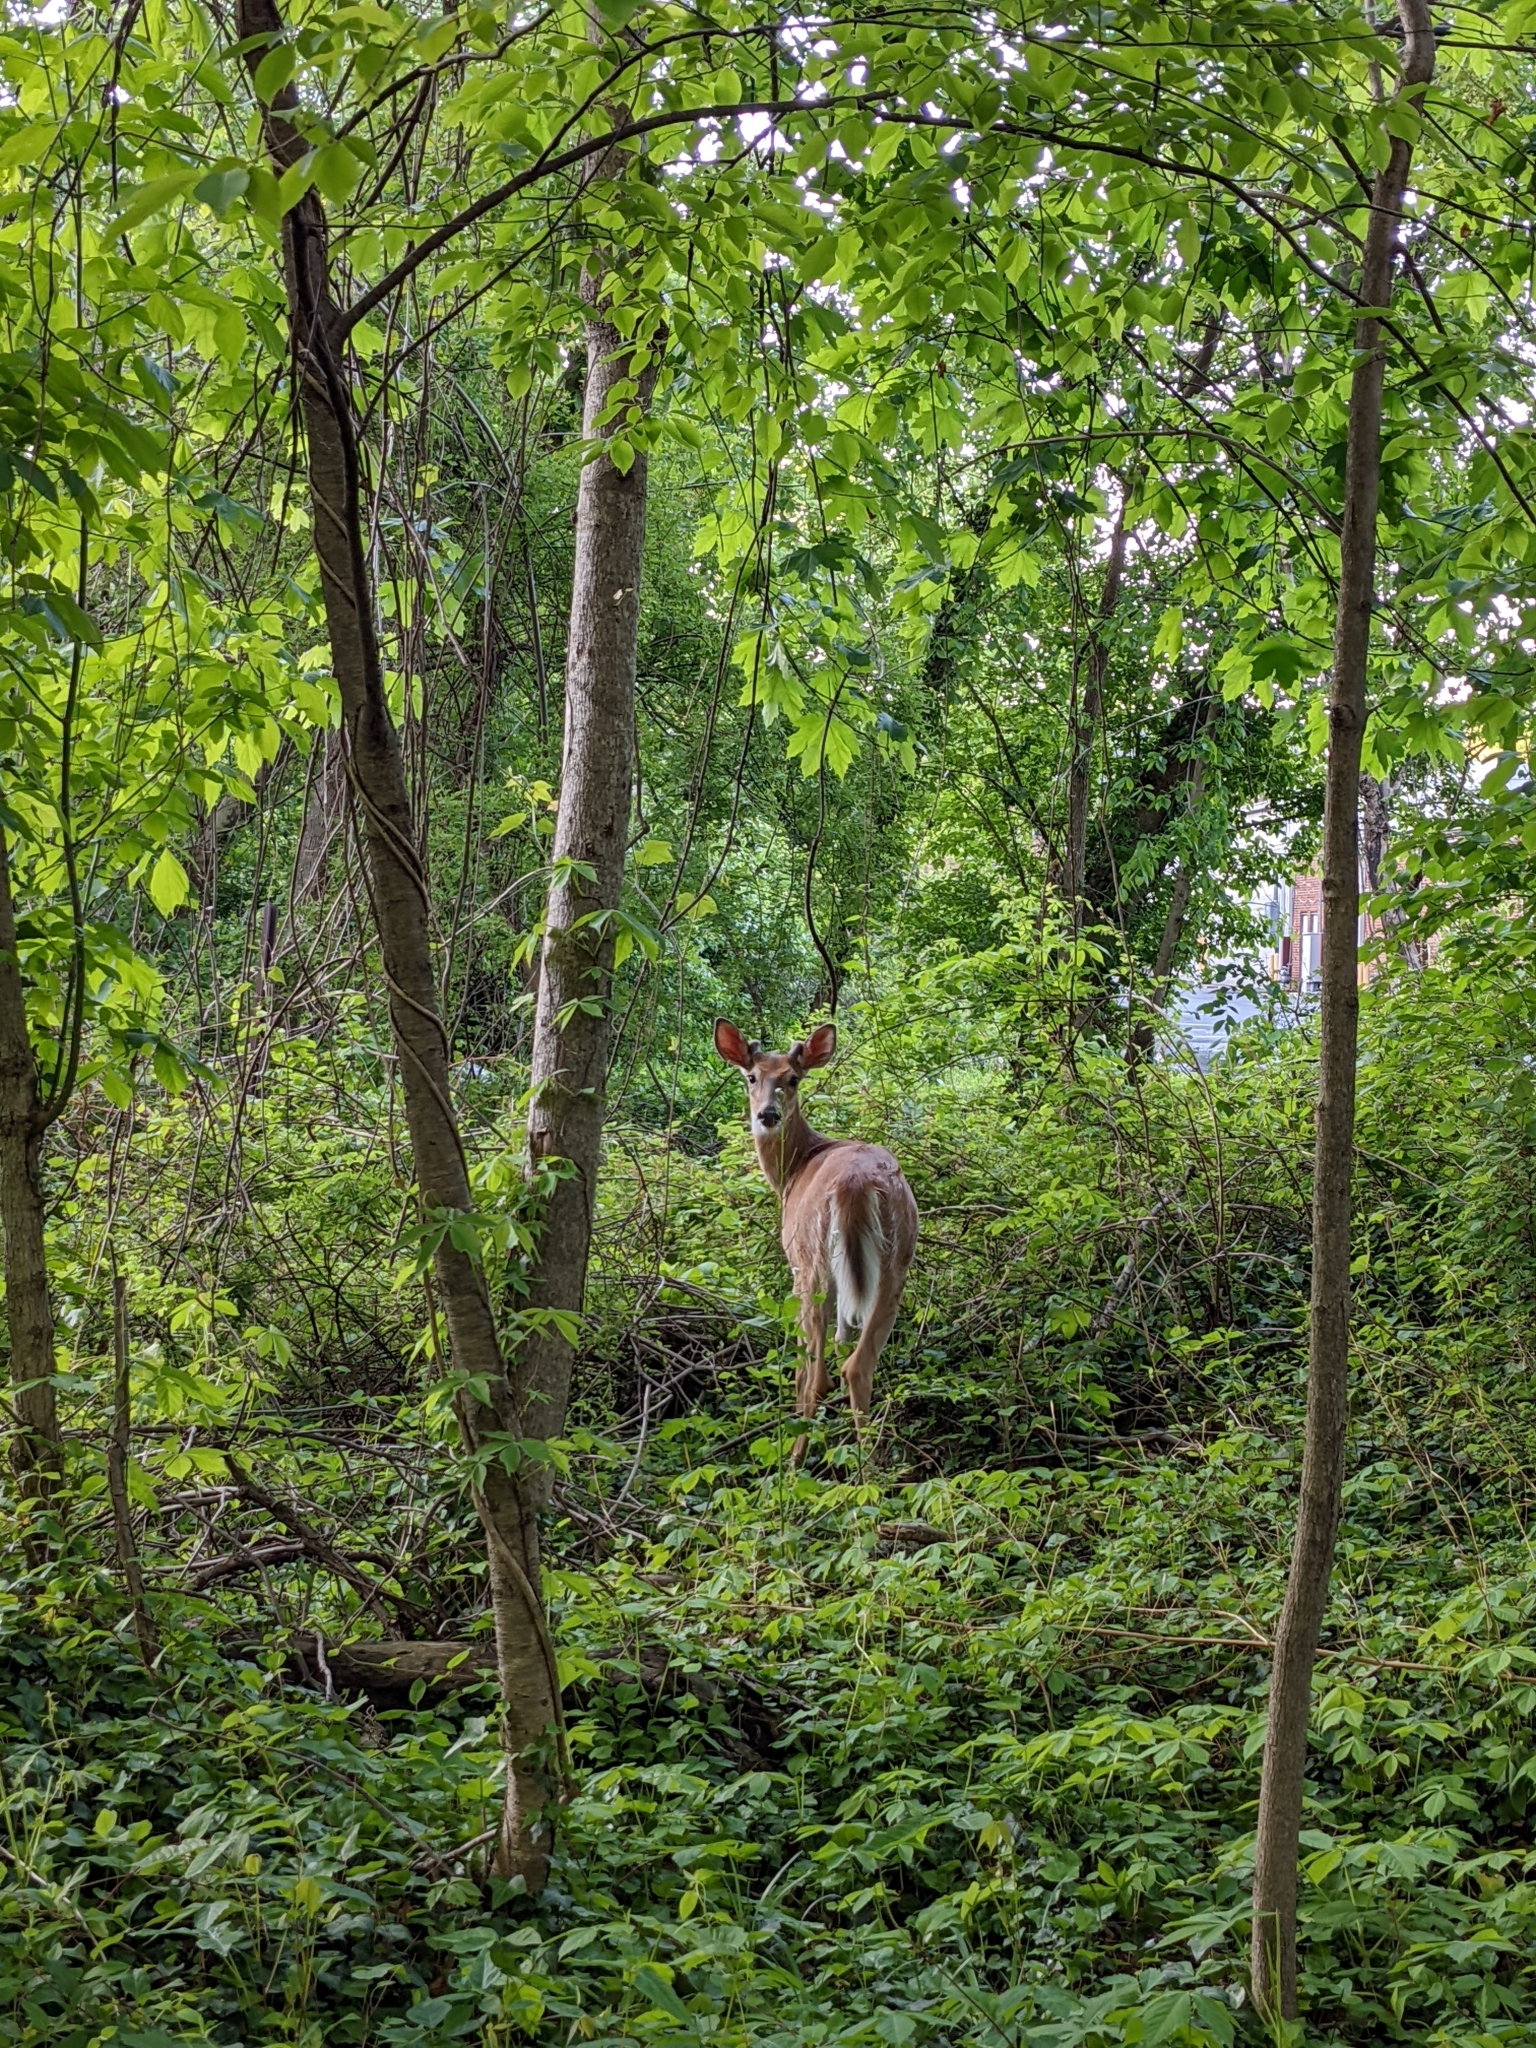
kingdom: Animalia
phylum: Chordata
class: Mammalia
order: Artiodactyla
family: Cervidae
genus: Odocoileus
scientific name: Odocoileus virginianus
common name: White-tailed deer
